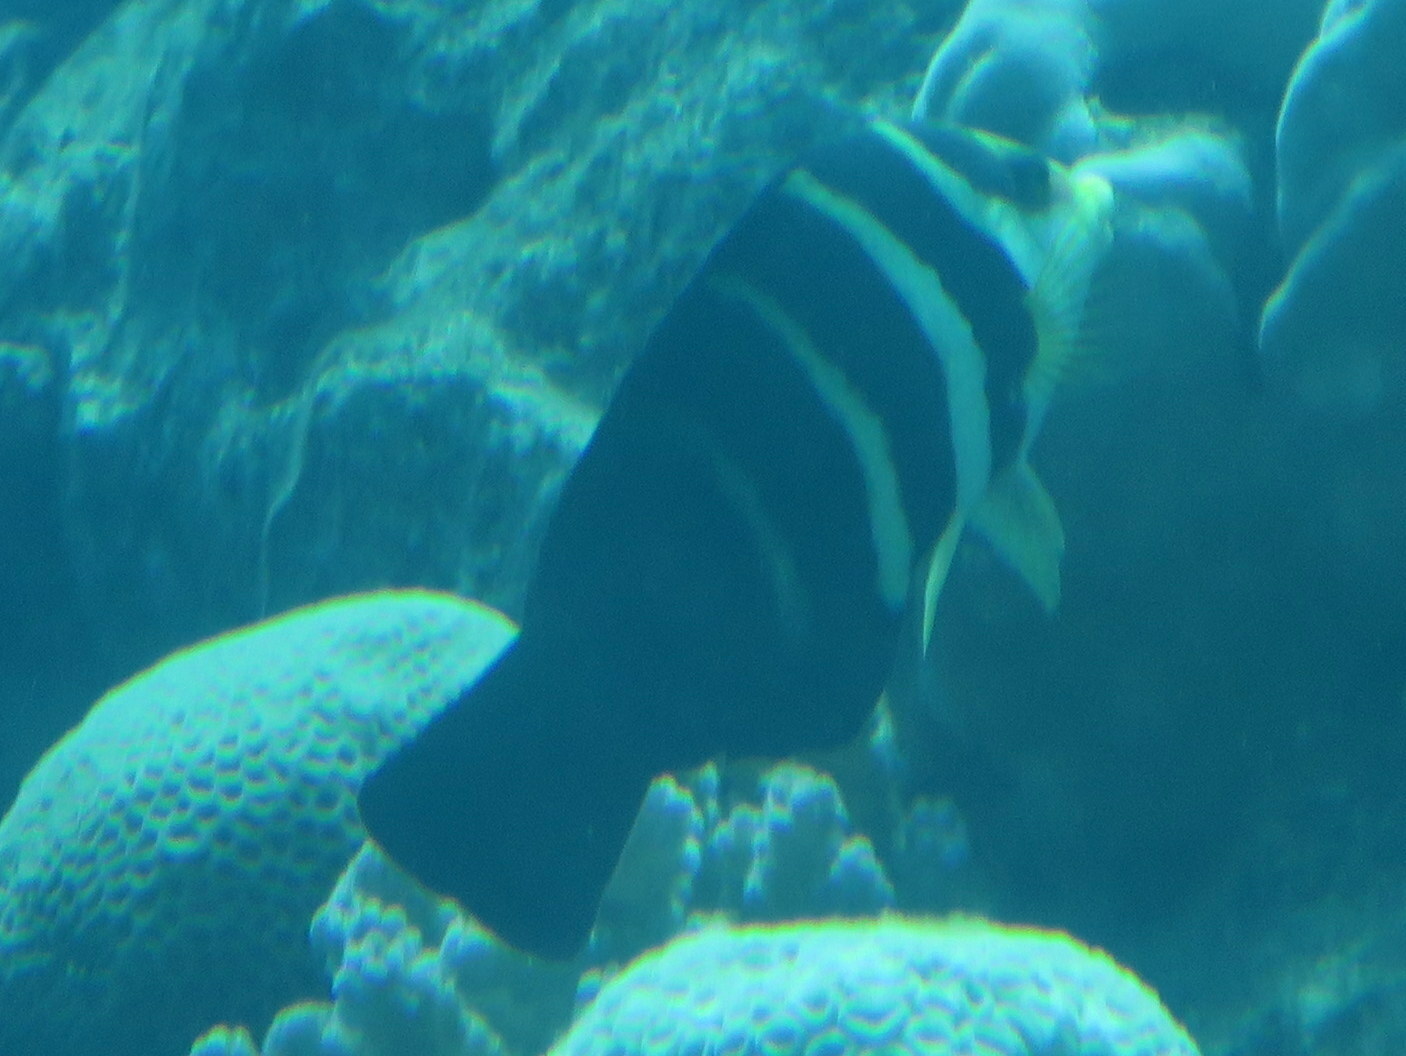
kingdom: Animalia
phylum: Chordata
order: Perciformes
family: Labridae
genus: Hemigymnus
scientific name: Hemigymnus sexfasciatus
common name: Barred thicklip
